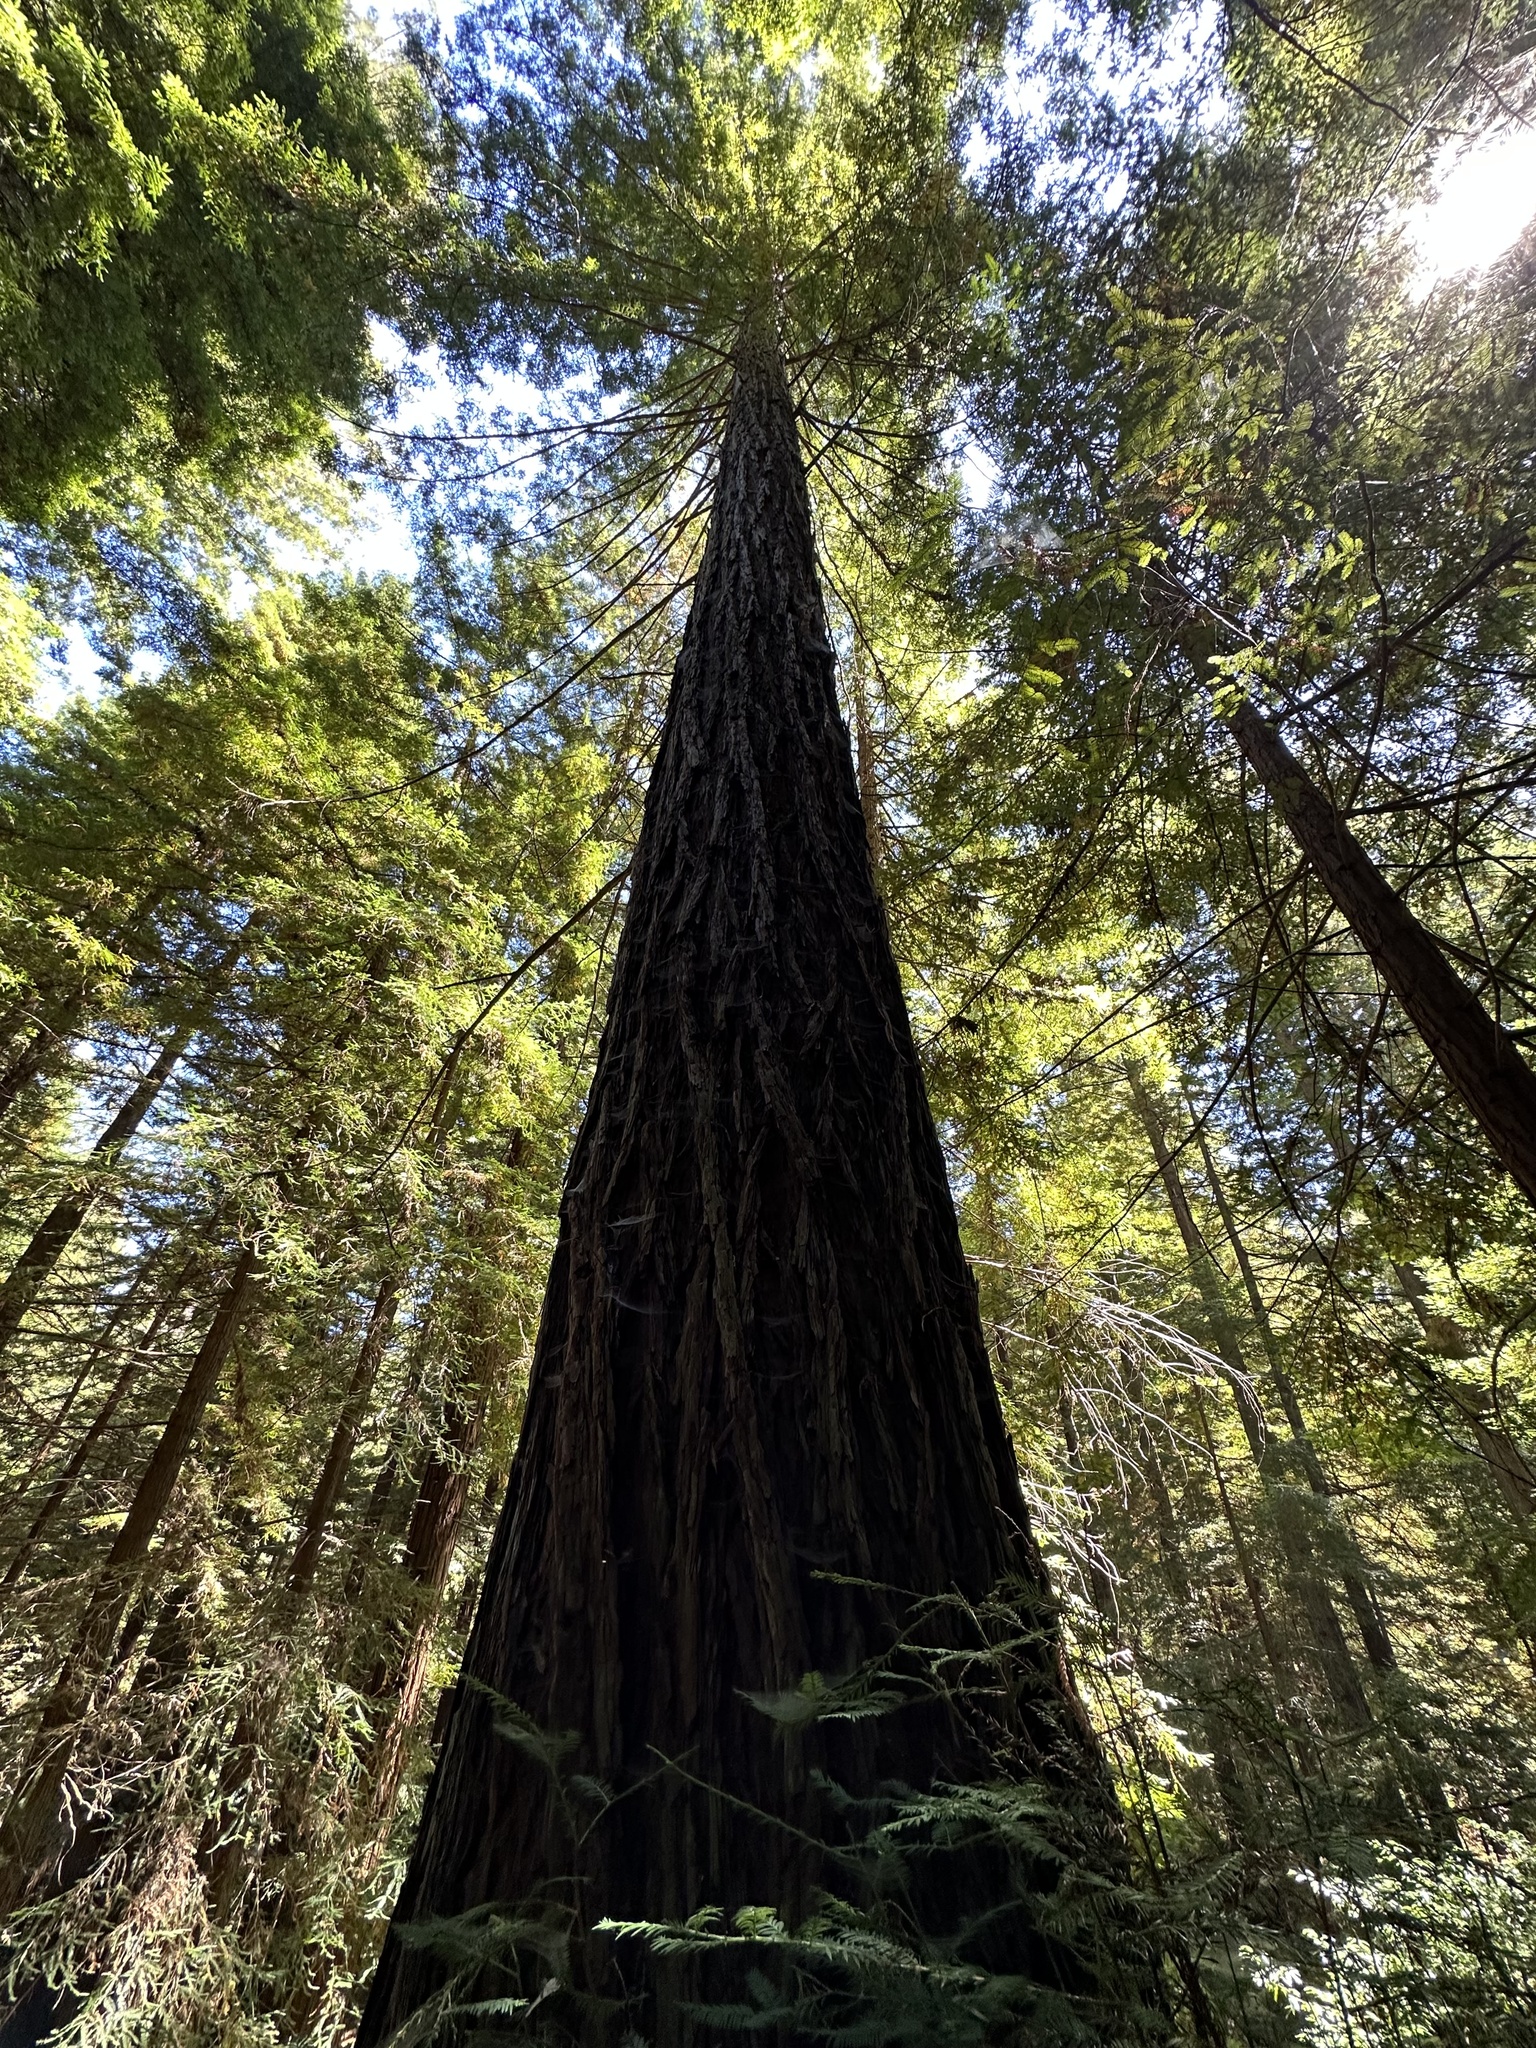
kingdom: Plantae
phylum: Tracheophyta
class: Pinopsida
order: Pinales
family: Cupressaceae
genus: Sequoia
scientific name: Sequoia sempervirens
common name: Coast redwood
